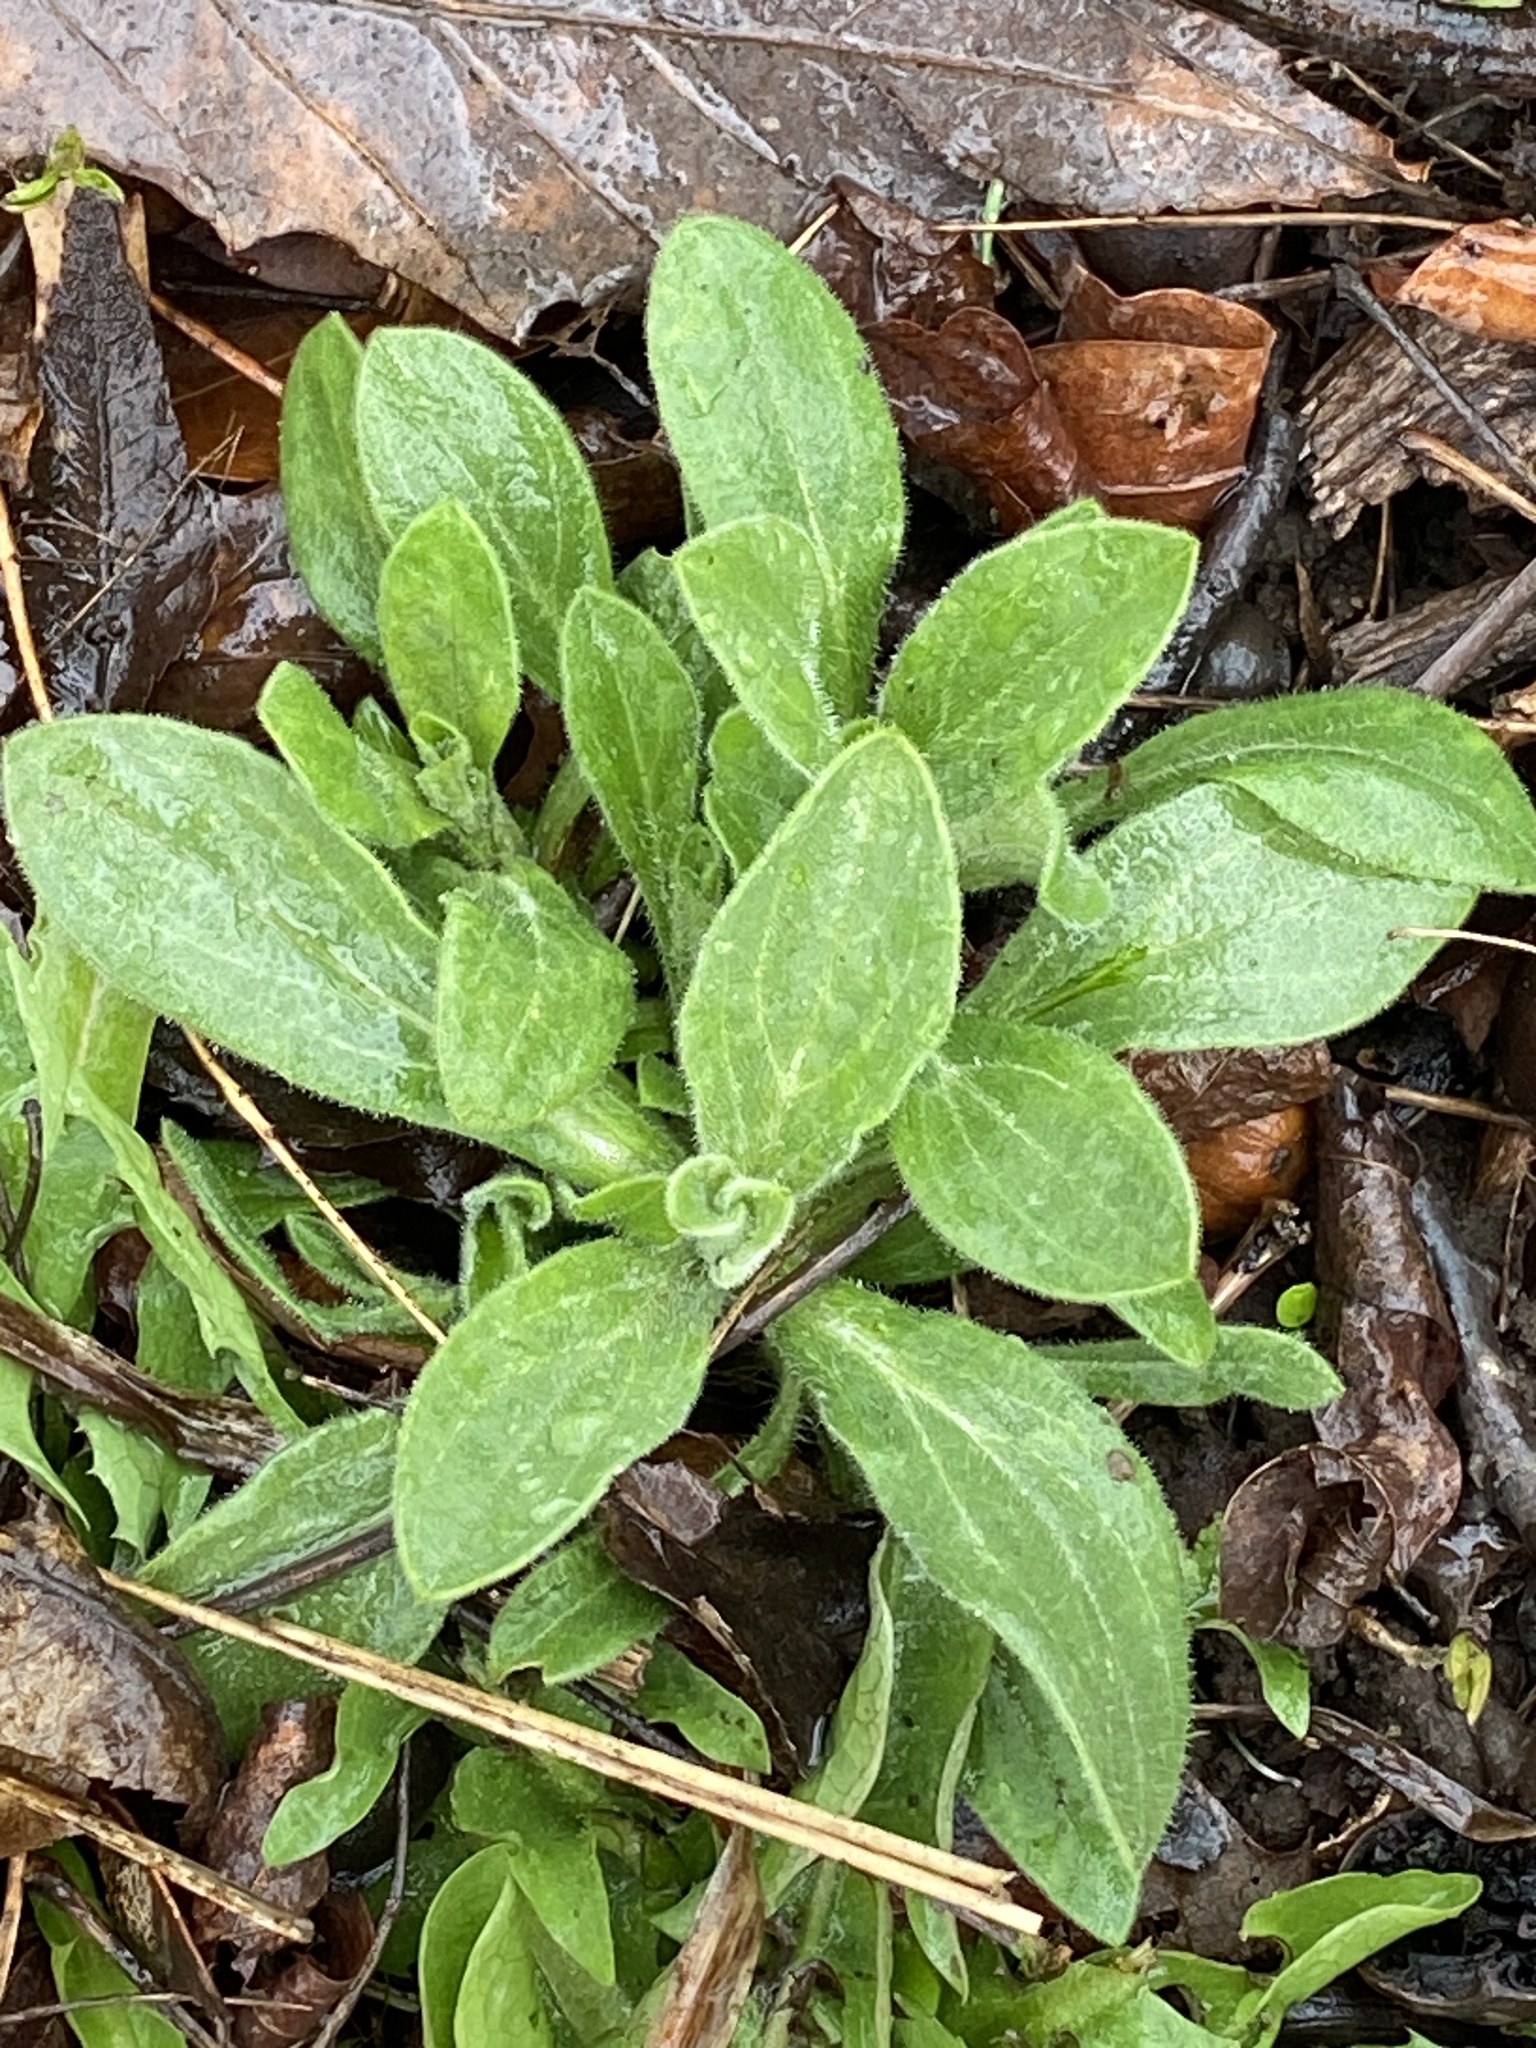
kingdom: Plantae
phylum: Tracheophyta
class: Magnoliopsida
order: Caryophyllales
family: Caryophyllaceae
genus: Silene
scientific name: Silene latifolia
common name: White campion
